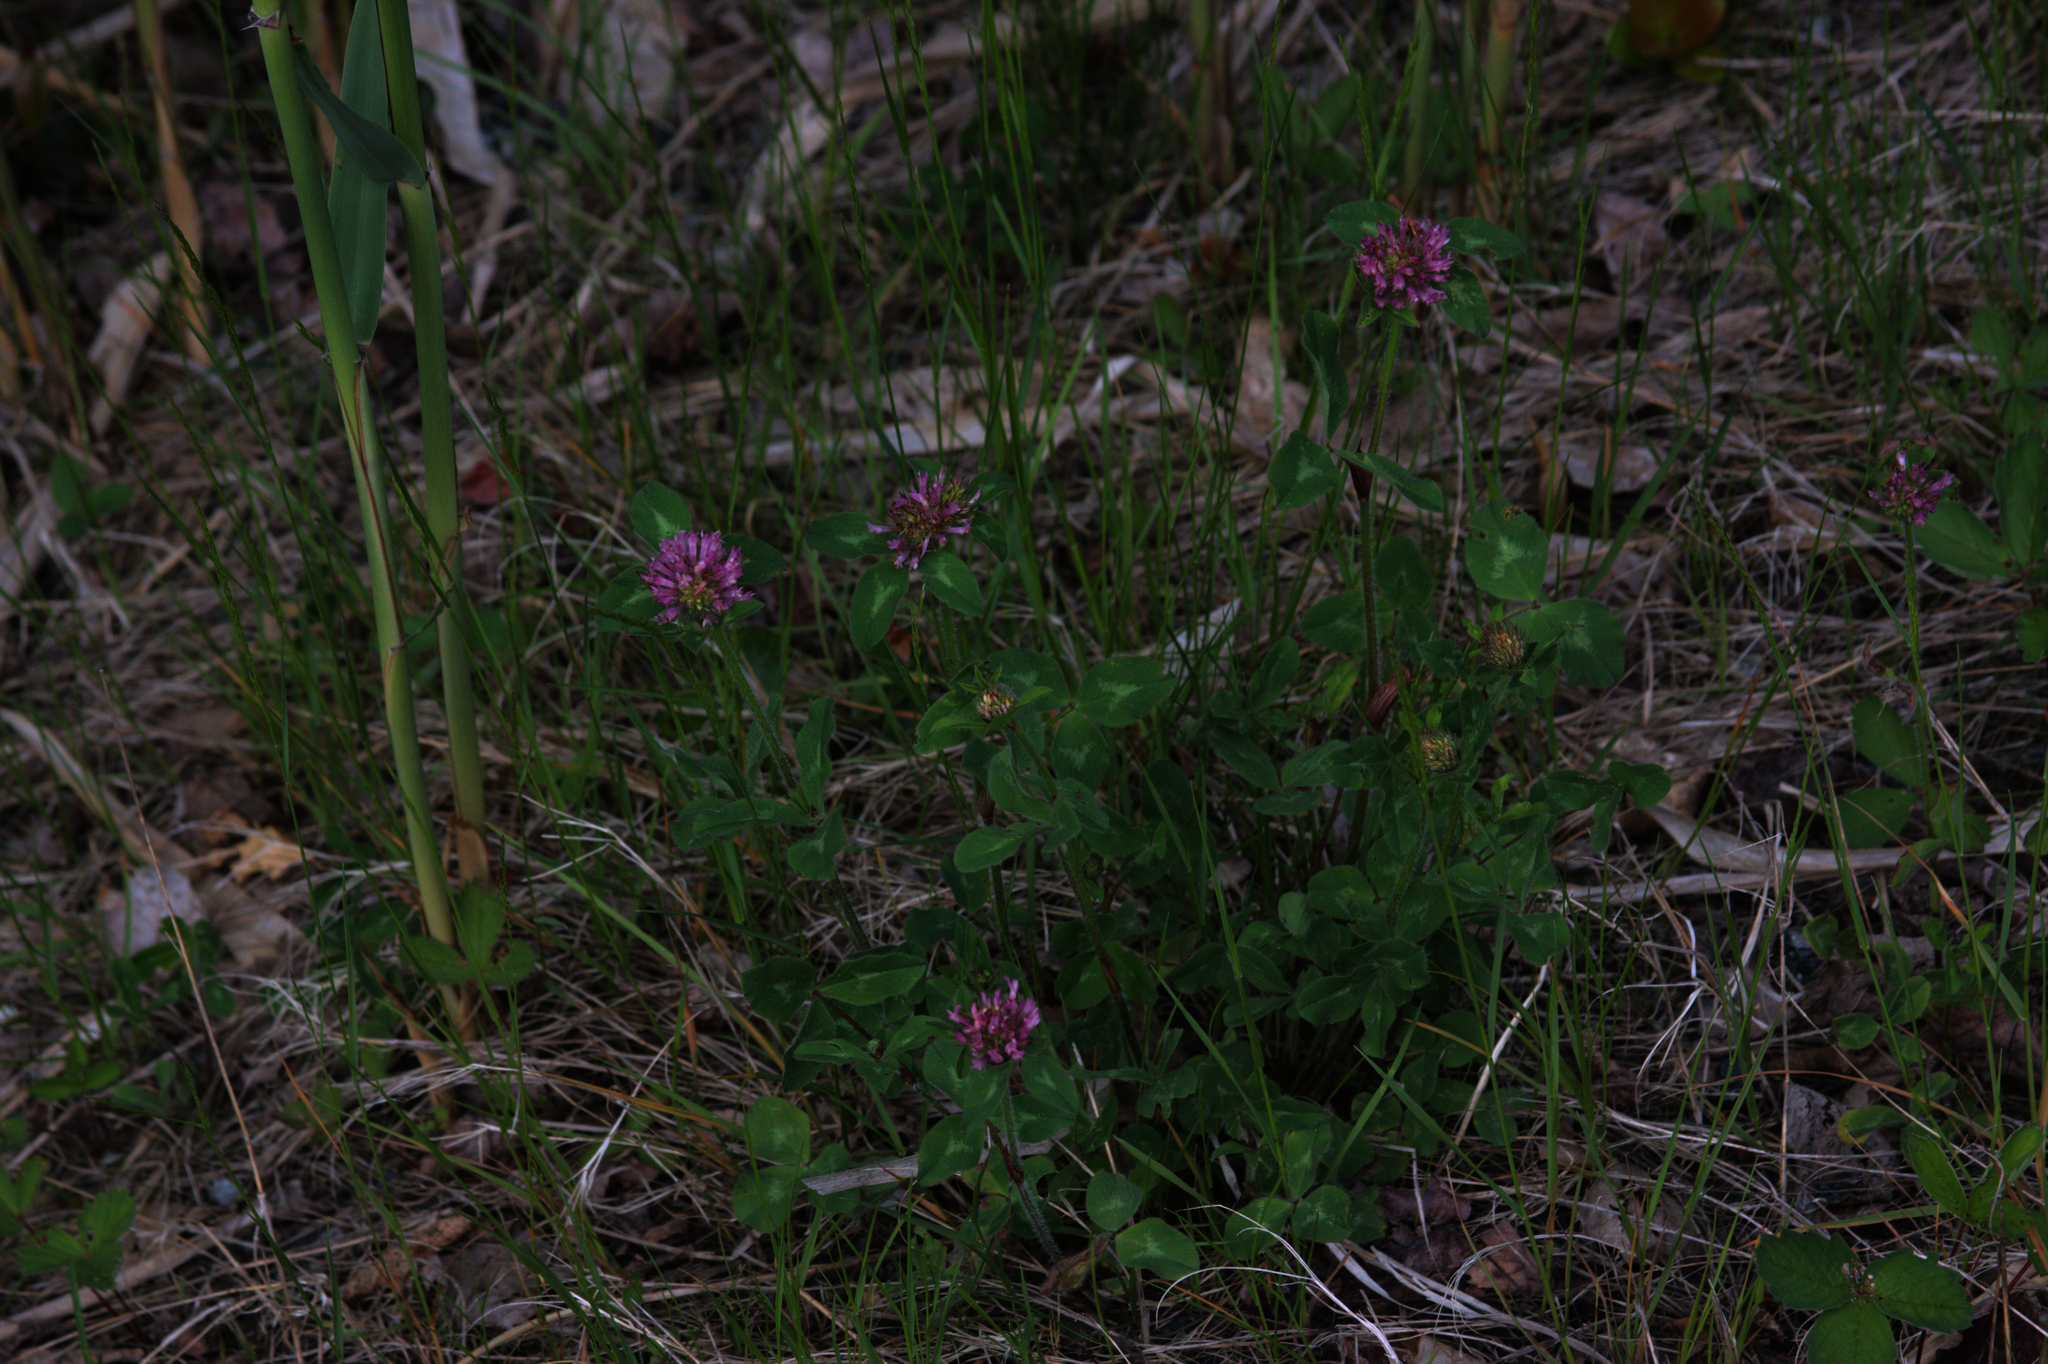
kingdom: Plantae
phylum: Tracheophyta
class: Magnoliopsida
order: Fabales
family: Fabaceae
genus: Trifolium
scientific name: Trifolium pratense
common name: Red clover
